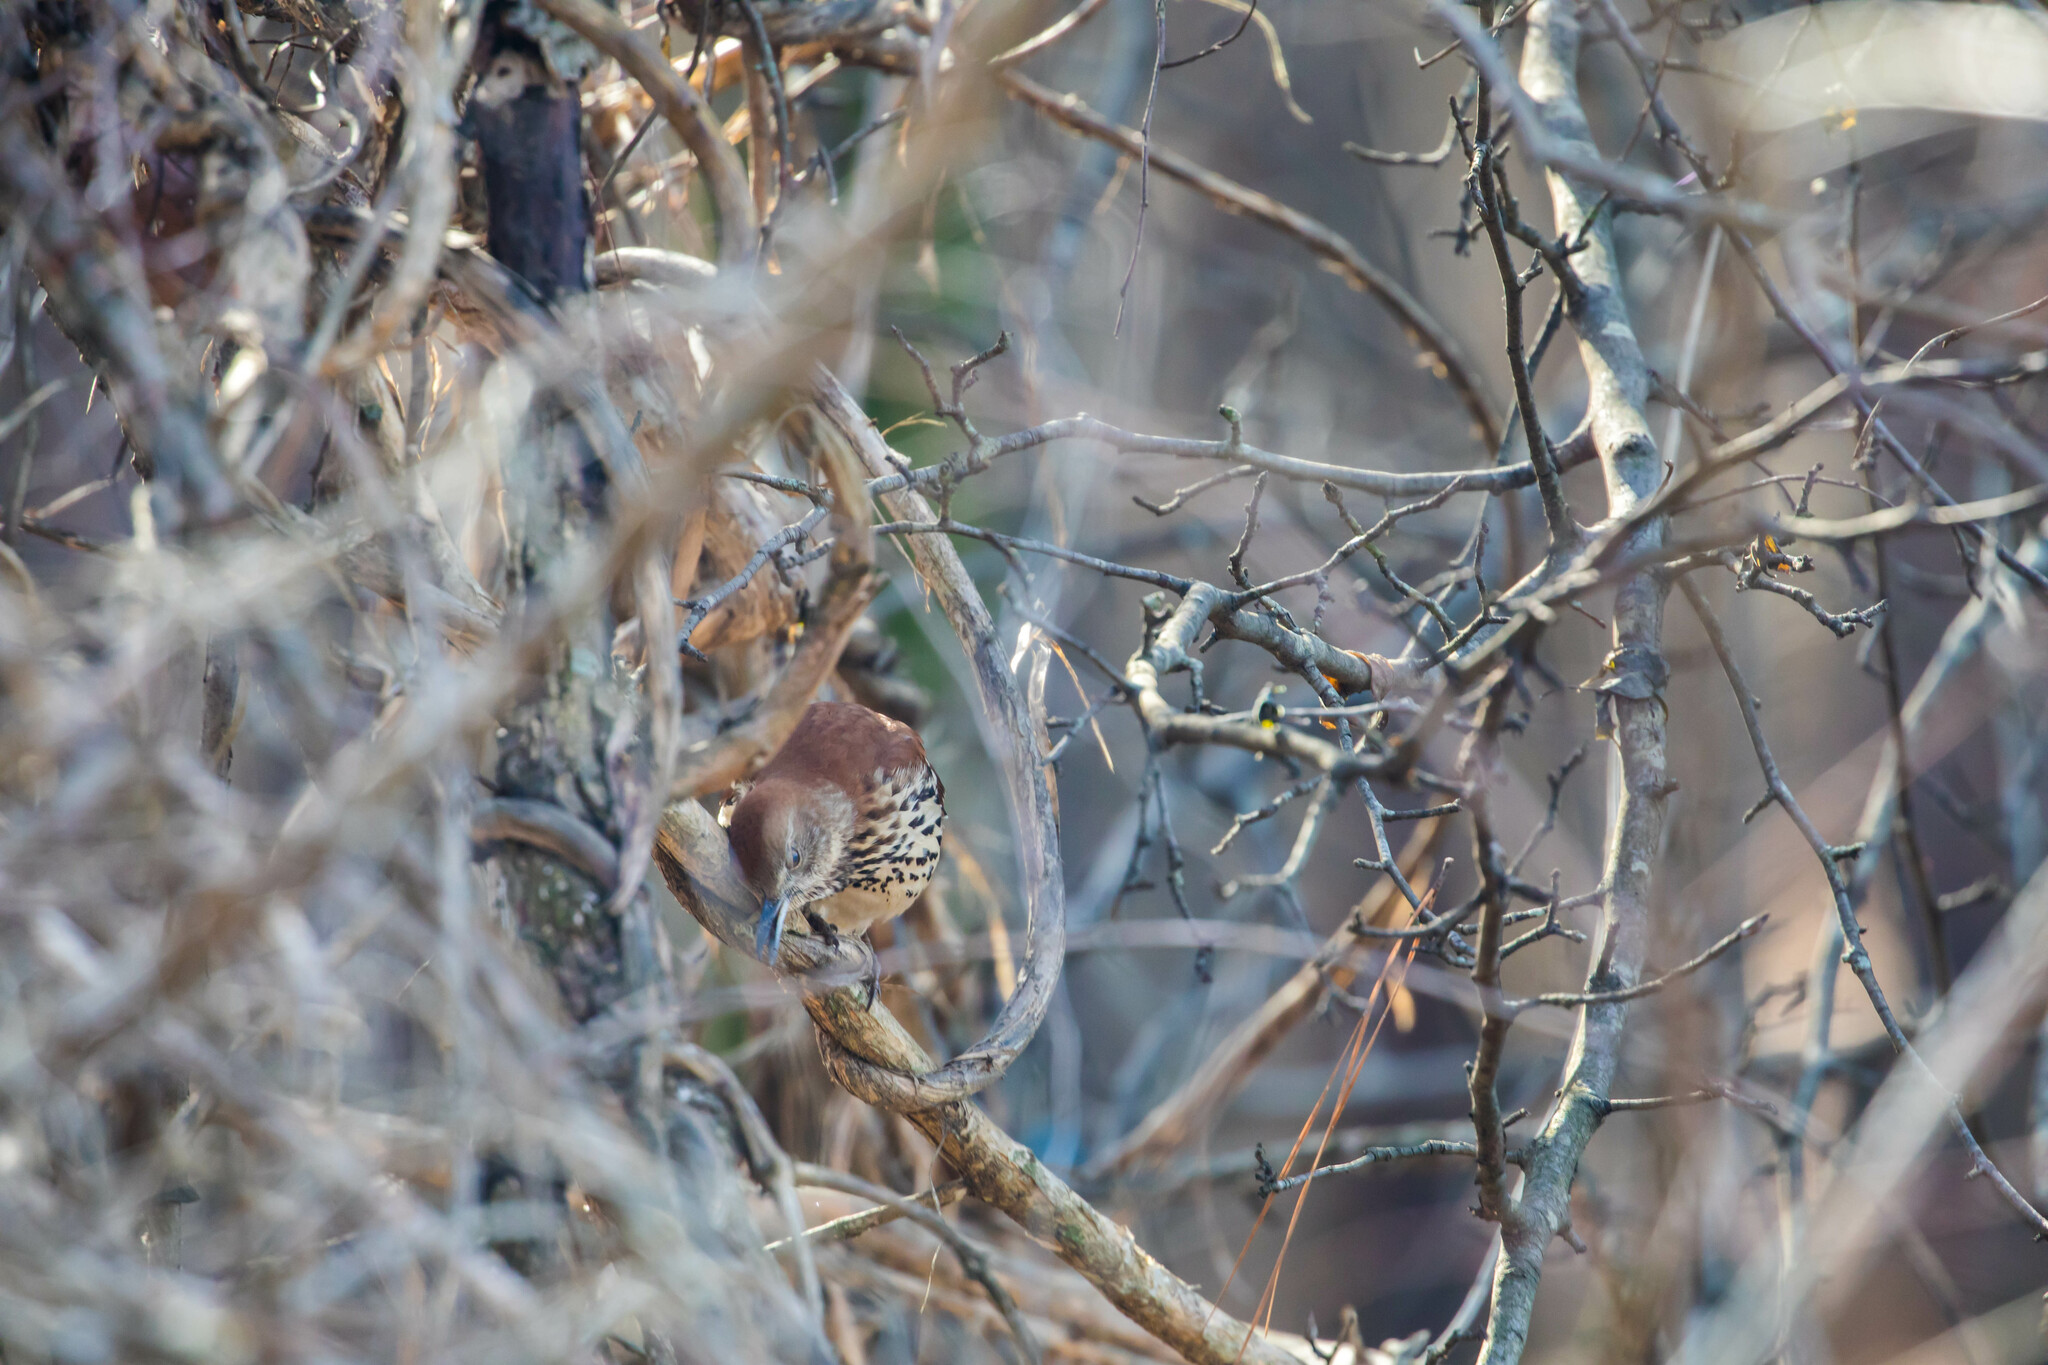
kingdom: Animalia
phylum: Chordata
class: Aves
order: Passeriformes
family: Mimidae
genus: Toxostoma
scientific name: Toxostoma rufum
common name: Brown thrasher
